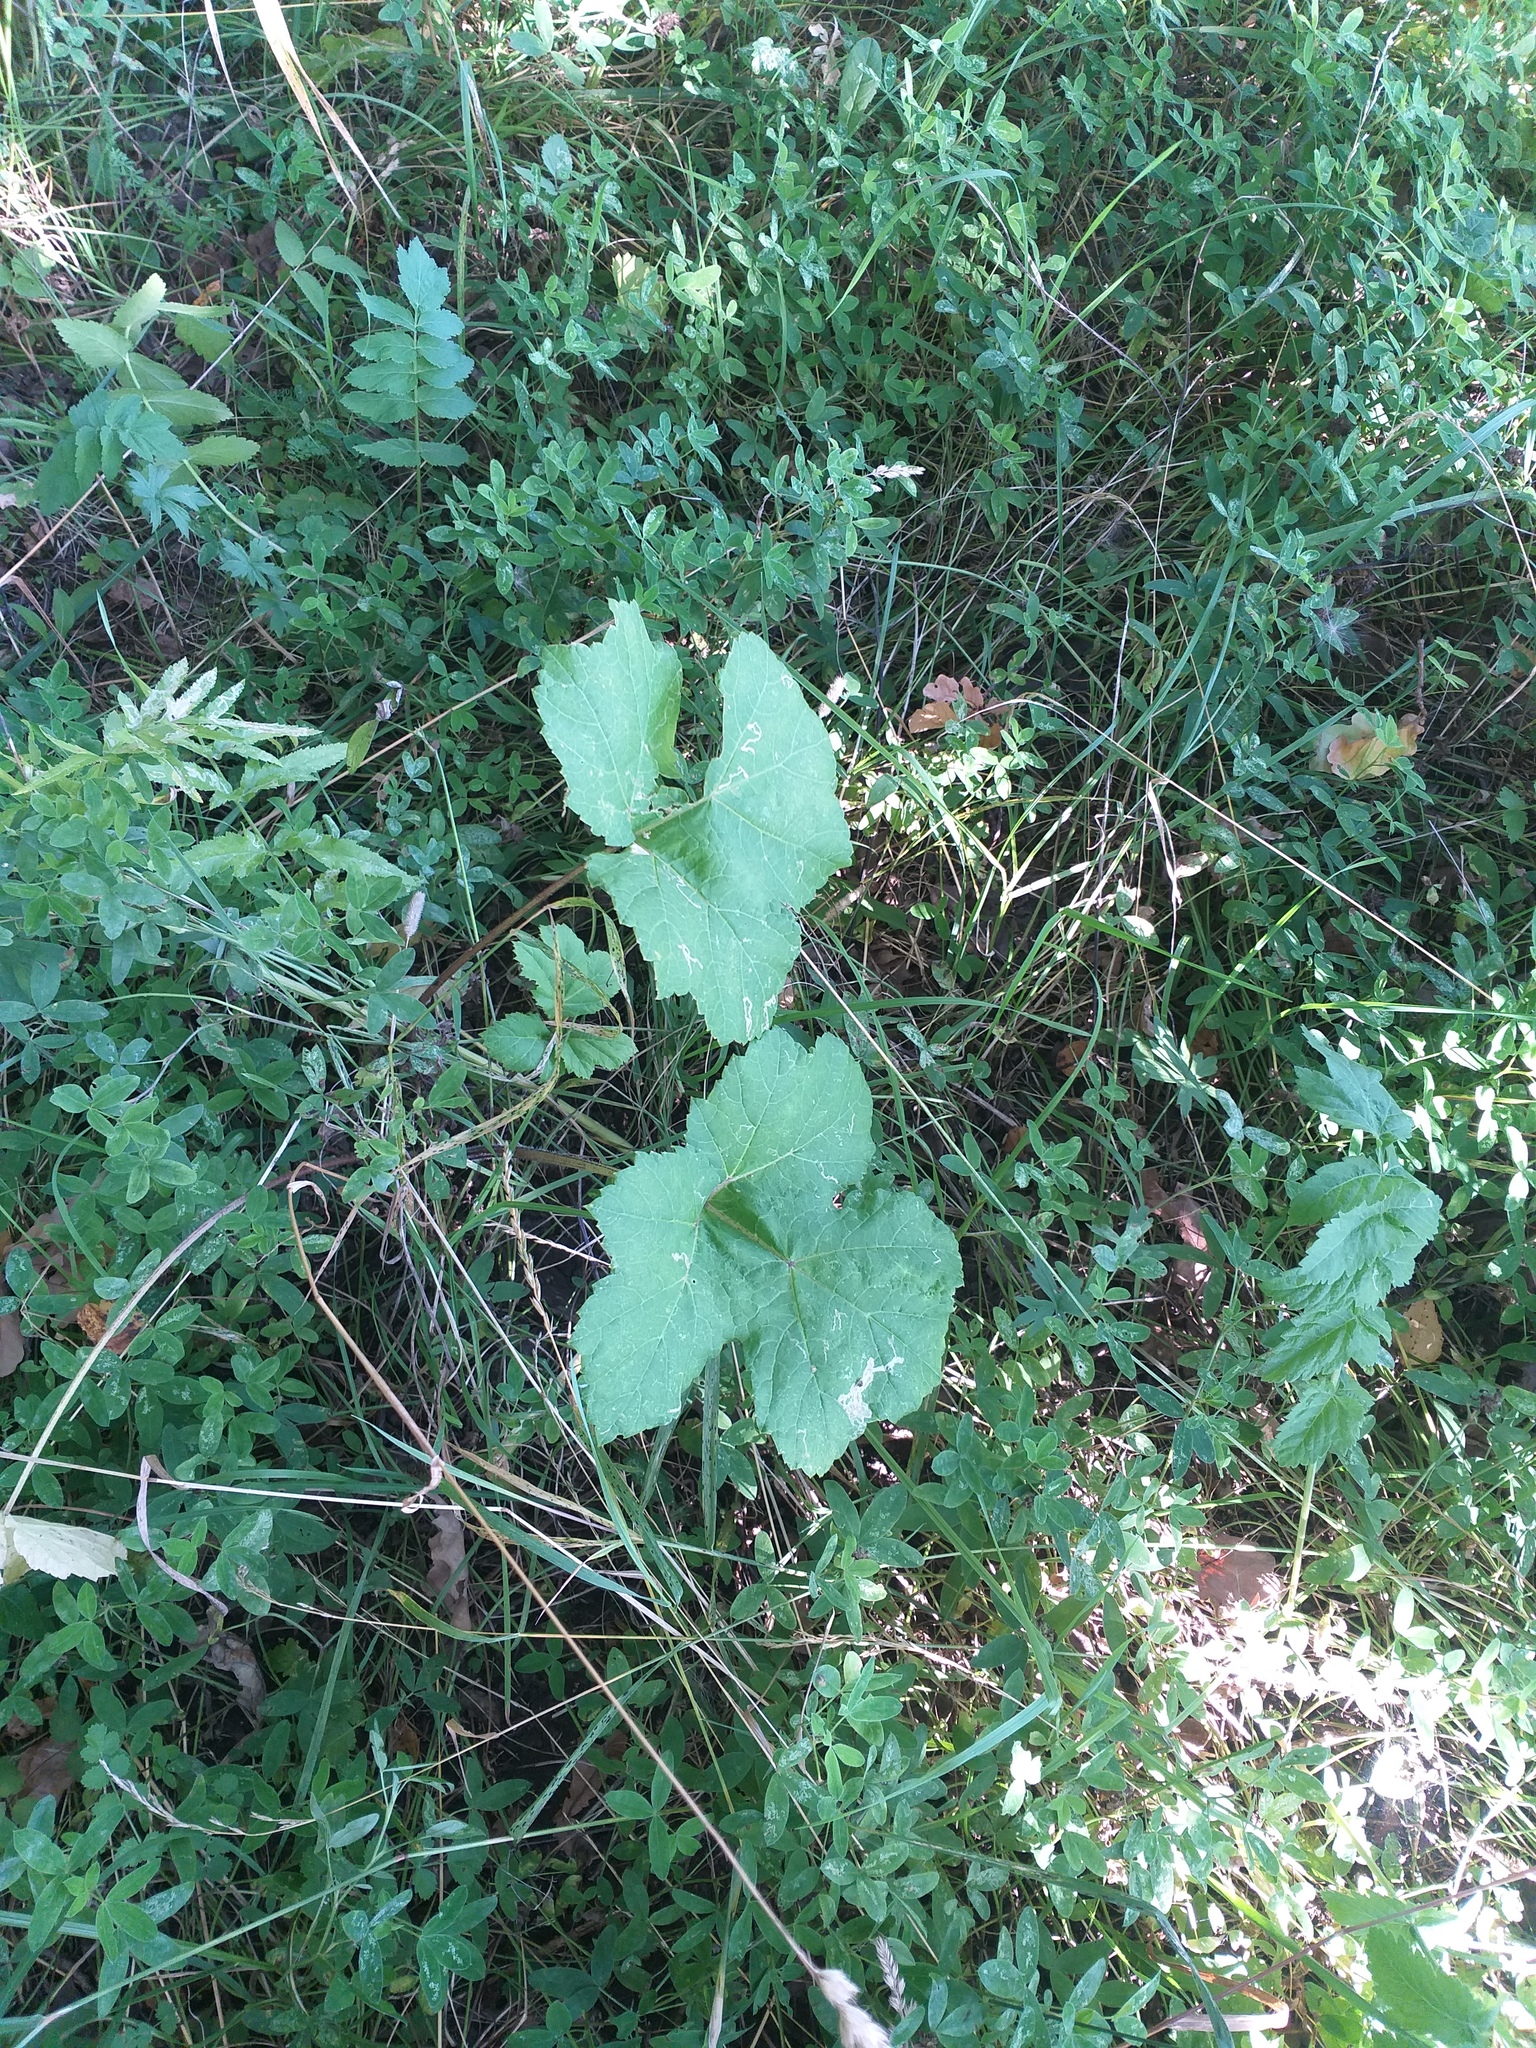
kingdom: Plantae
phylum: Tracheophyta
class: Magnoliopsida
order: Apiales
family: Apiaceae
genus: Heracleum
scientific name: Heracleum sosnowskyi
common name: Sosnowsky's hogweed
